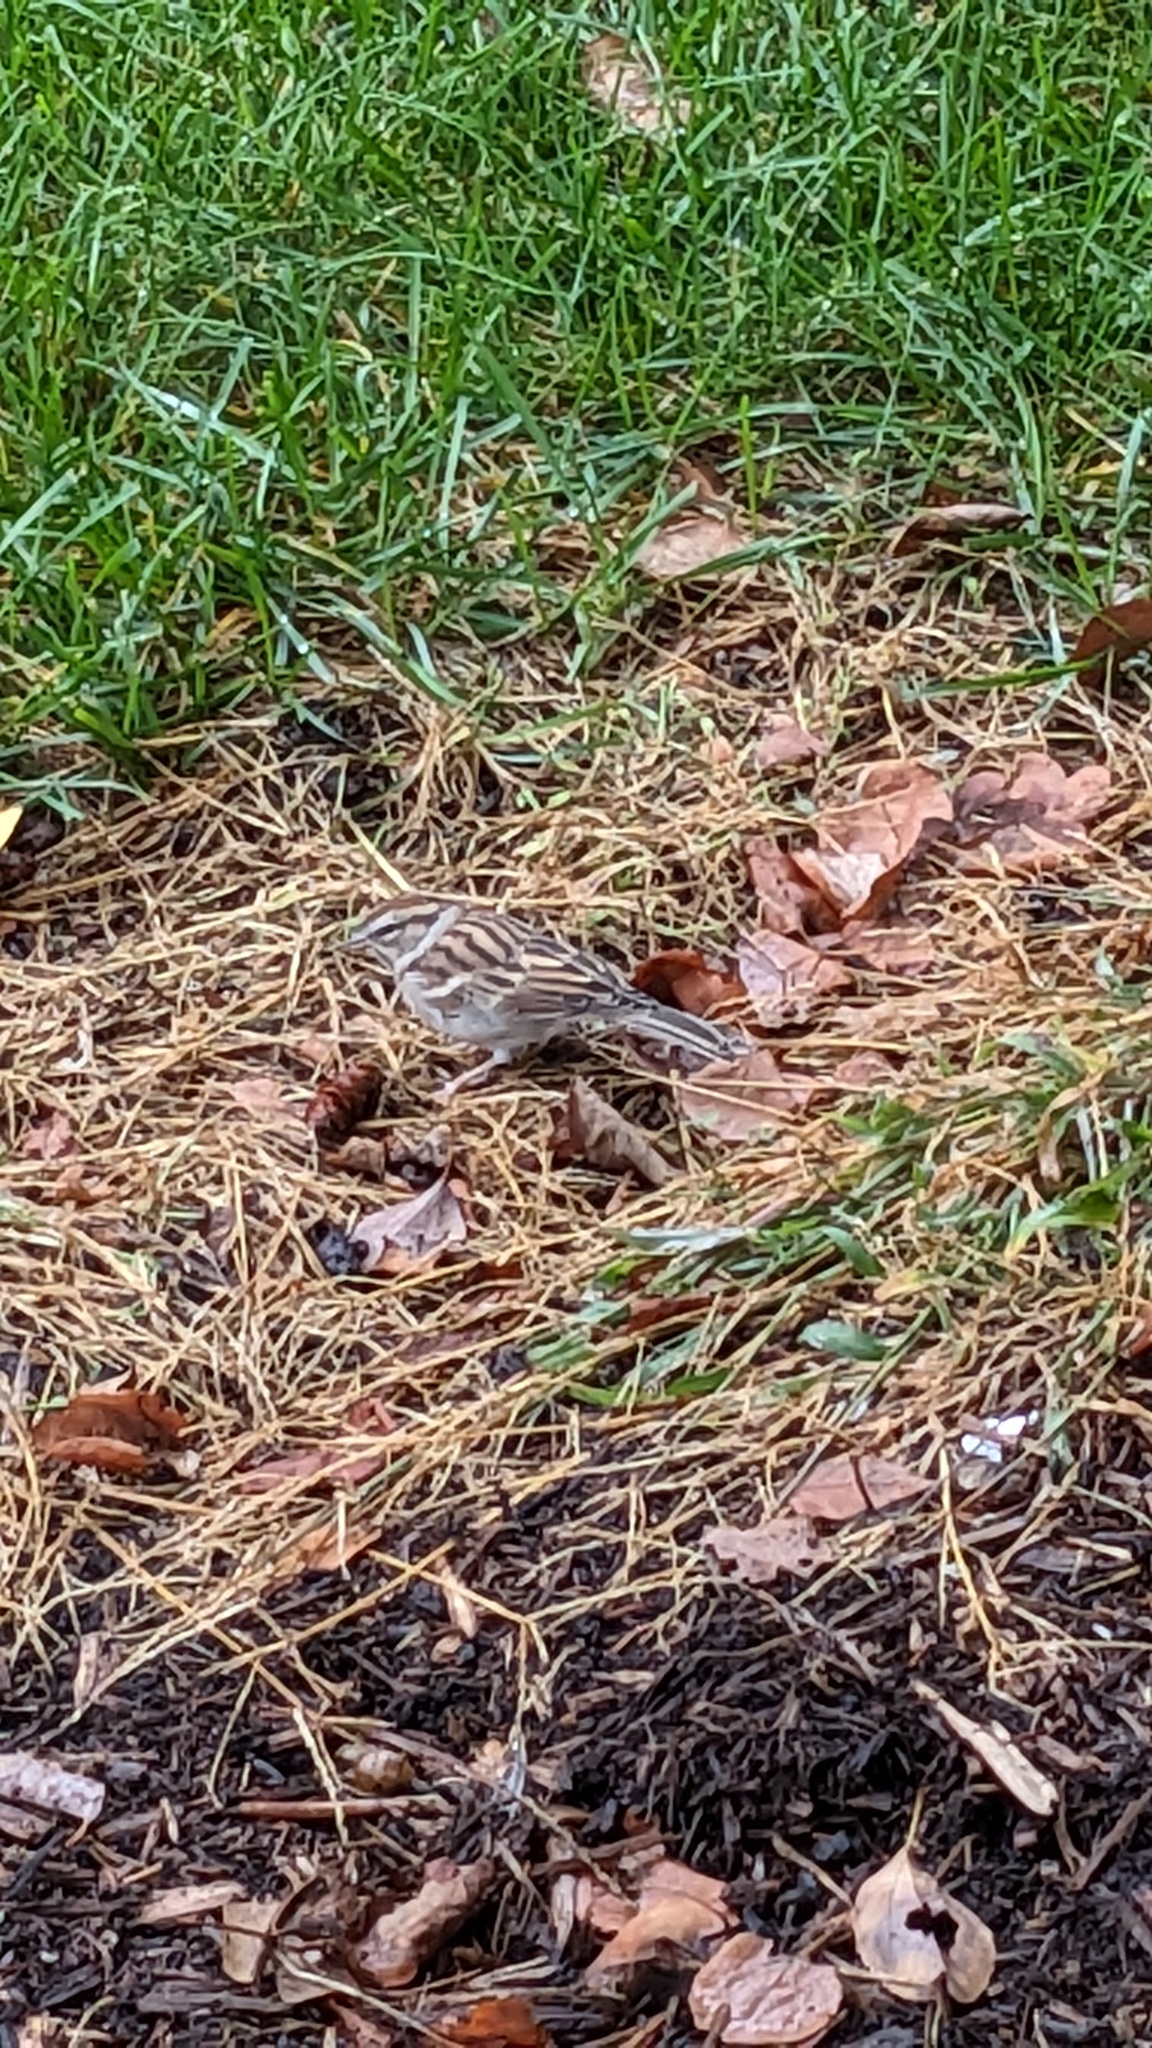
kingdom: Animalia
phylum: Chordata
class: Aves
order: Passeriformes
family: Passerellidae
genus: Spizella
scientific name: Spizella passerina
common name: Chipping sparrow
